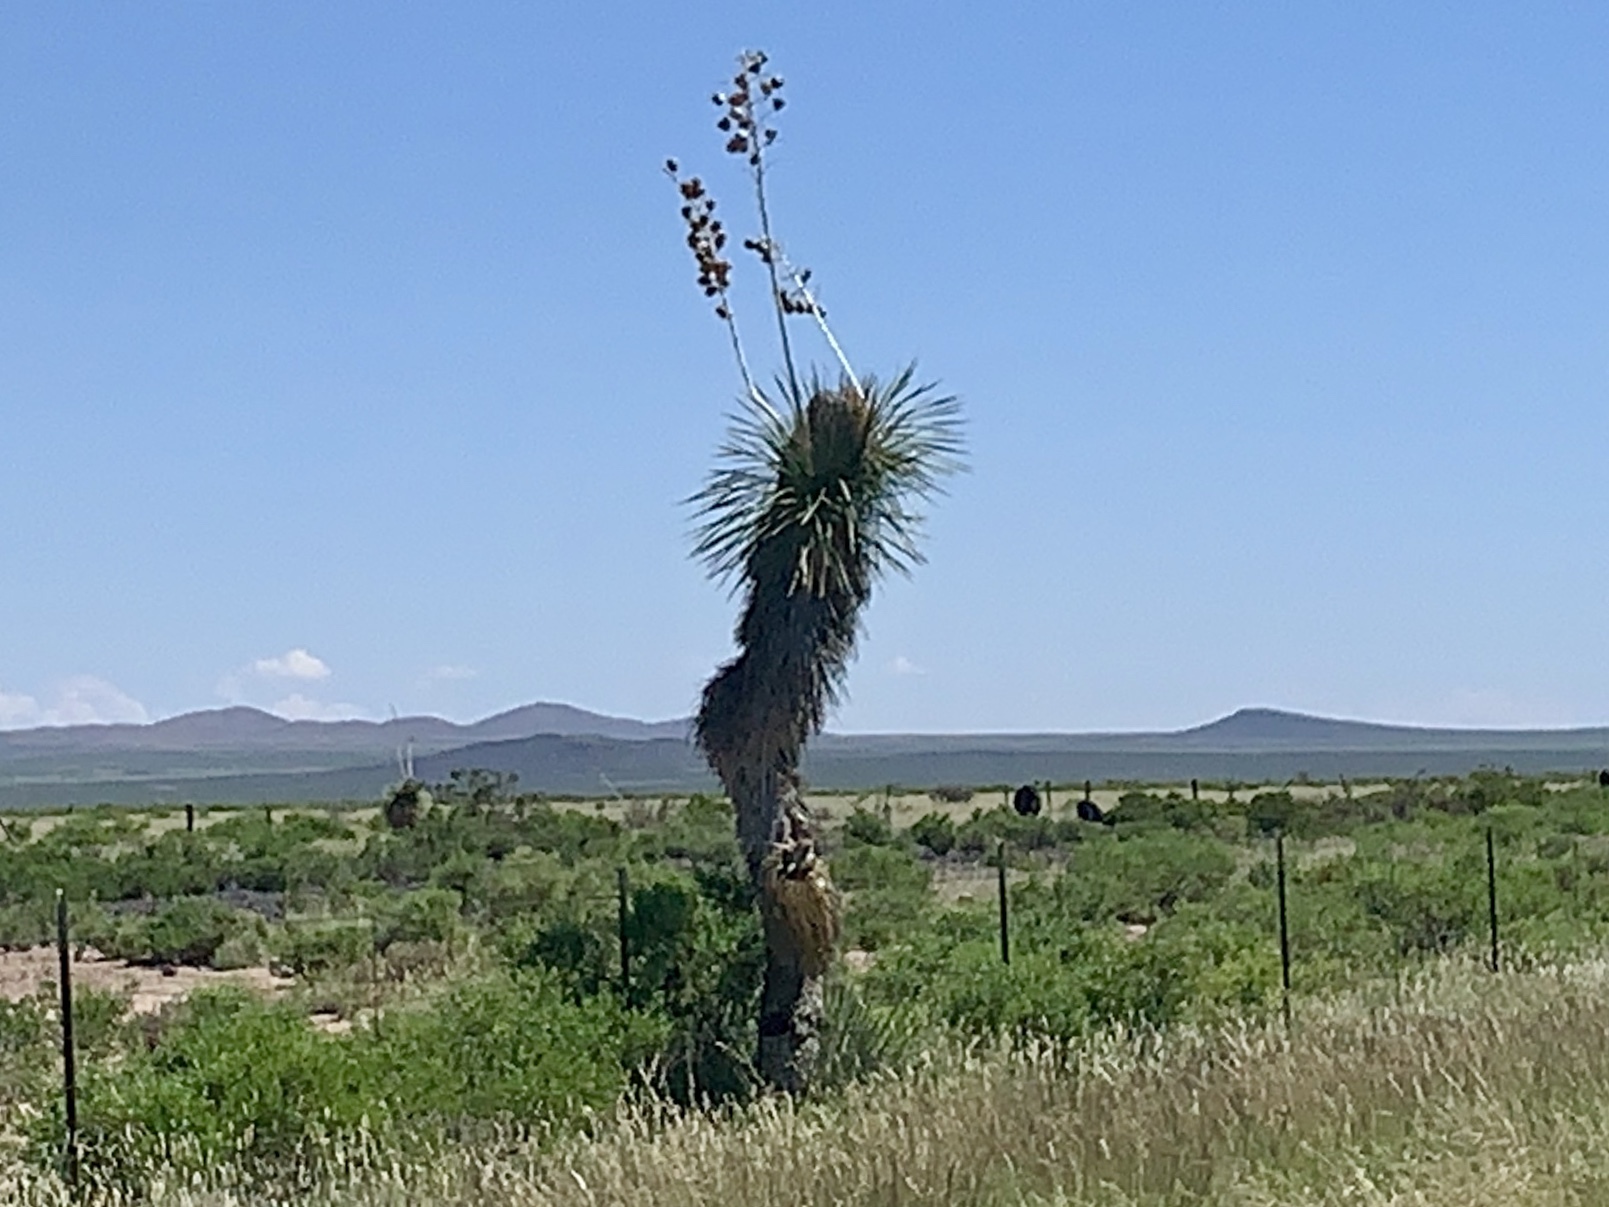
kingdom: Plantae
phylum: Tracheophyta
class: Liliopsida
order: Asparagales
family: Asparagaceae
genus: Yucca
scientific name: Yucca elata
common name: Palmella
